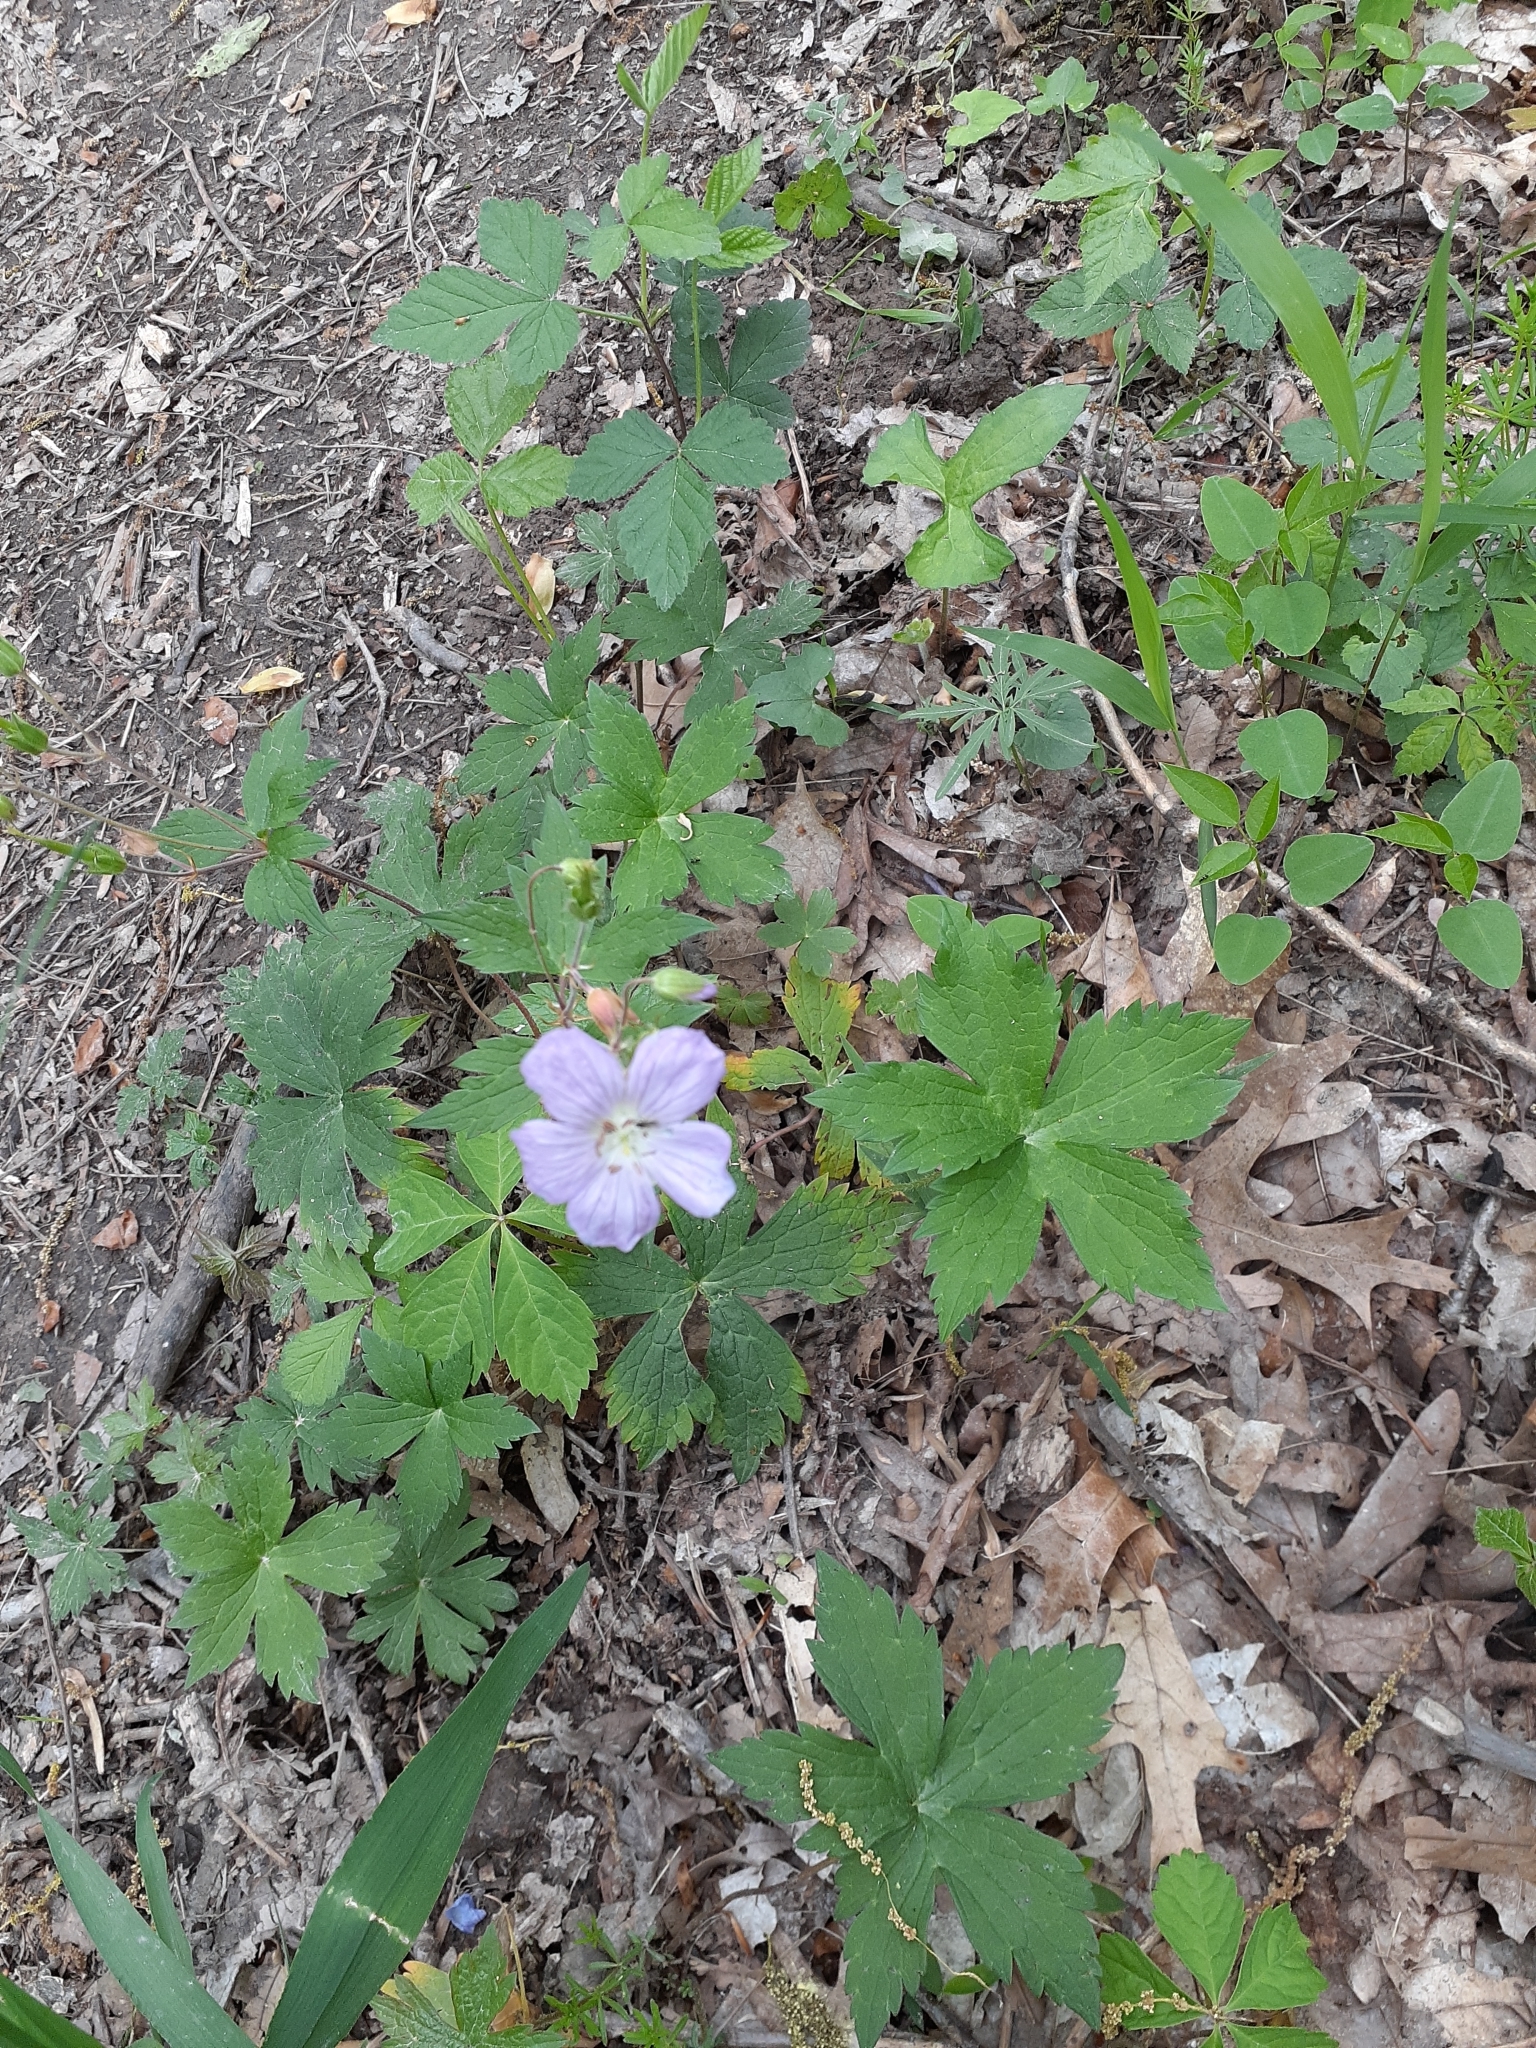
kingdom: Plantae
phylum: Tracheophyta
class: Magnoliopsida
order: Geraniales
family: Geraniaceae
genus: Geranium
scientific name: Geranium maculatum
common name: Spotted geranium
